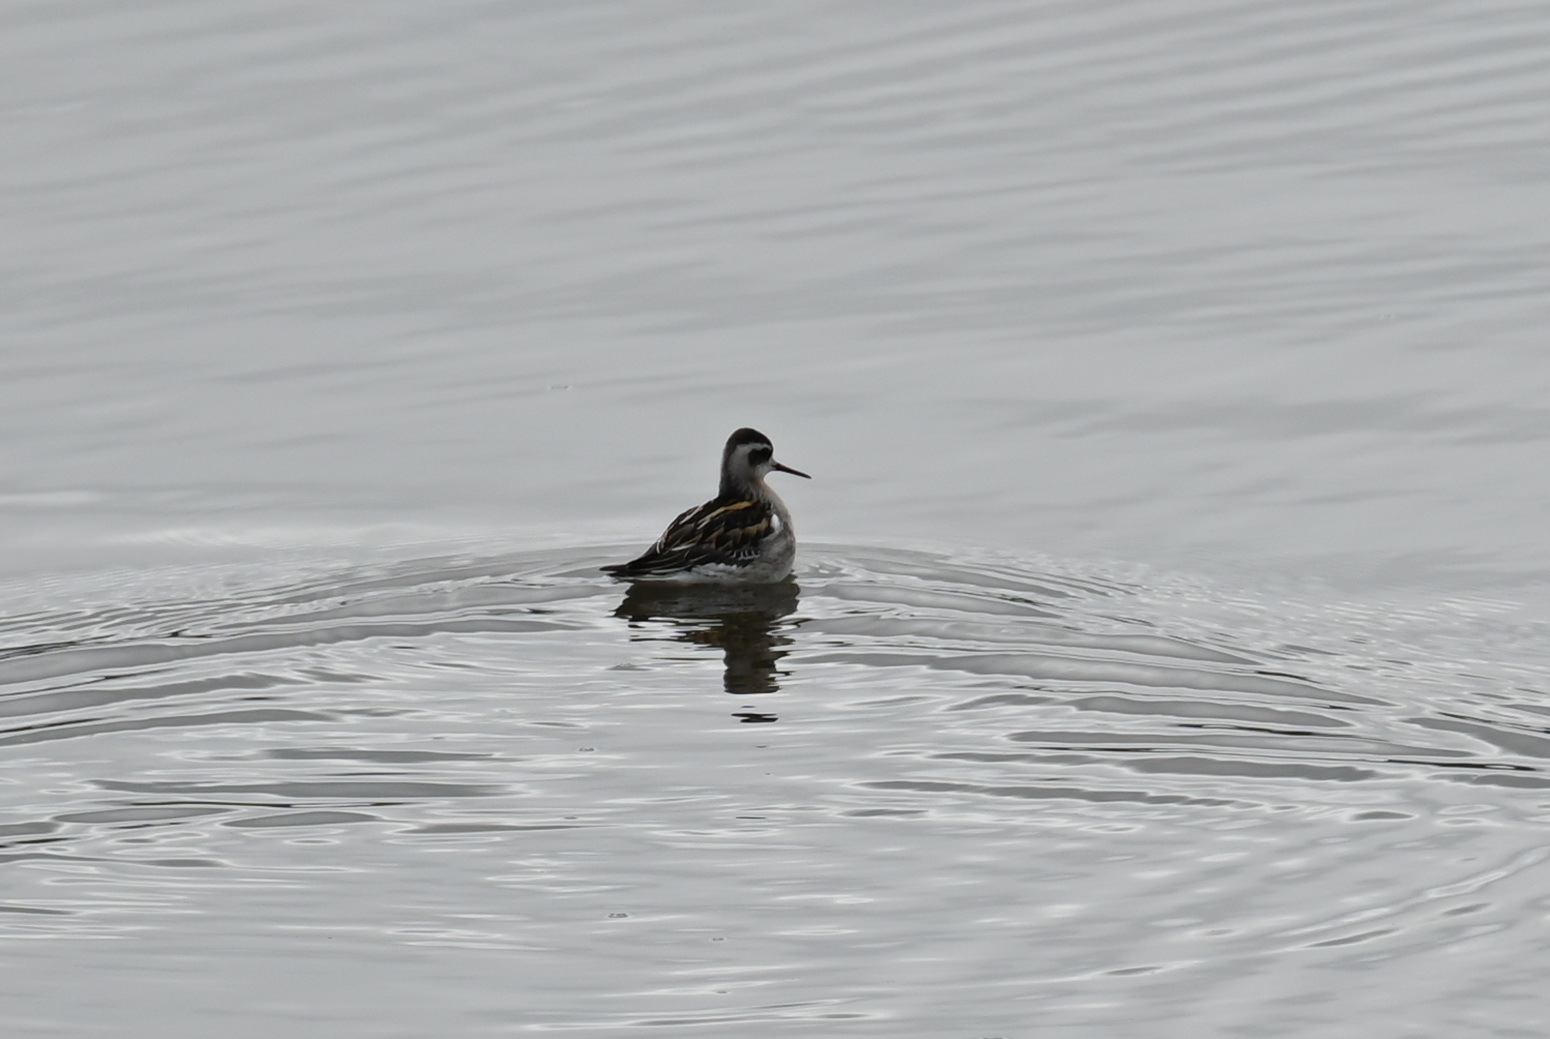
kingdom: Animalia
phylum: Chordata
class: Aves
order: Charadriiformes
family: Scolopacidae
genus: Phalaropus
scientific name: Phalaropus lobatus
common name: Red-necked phalarope
